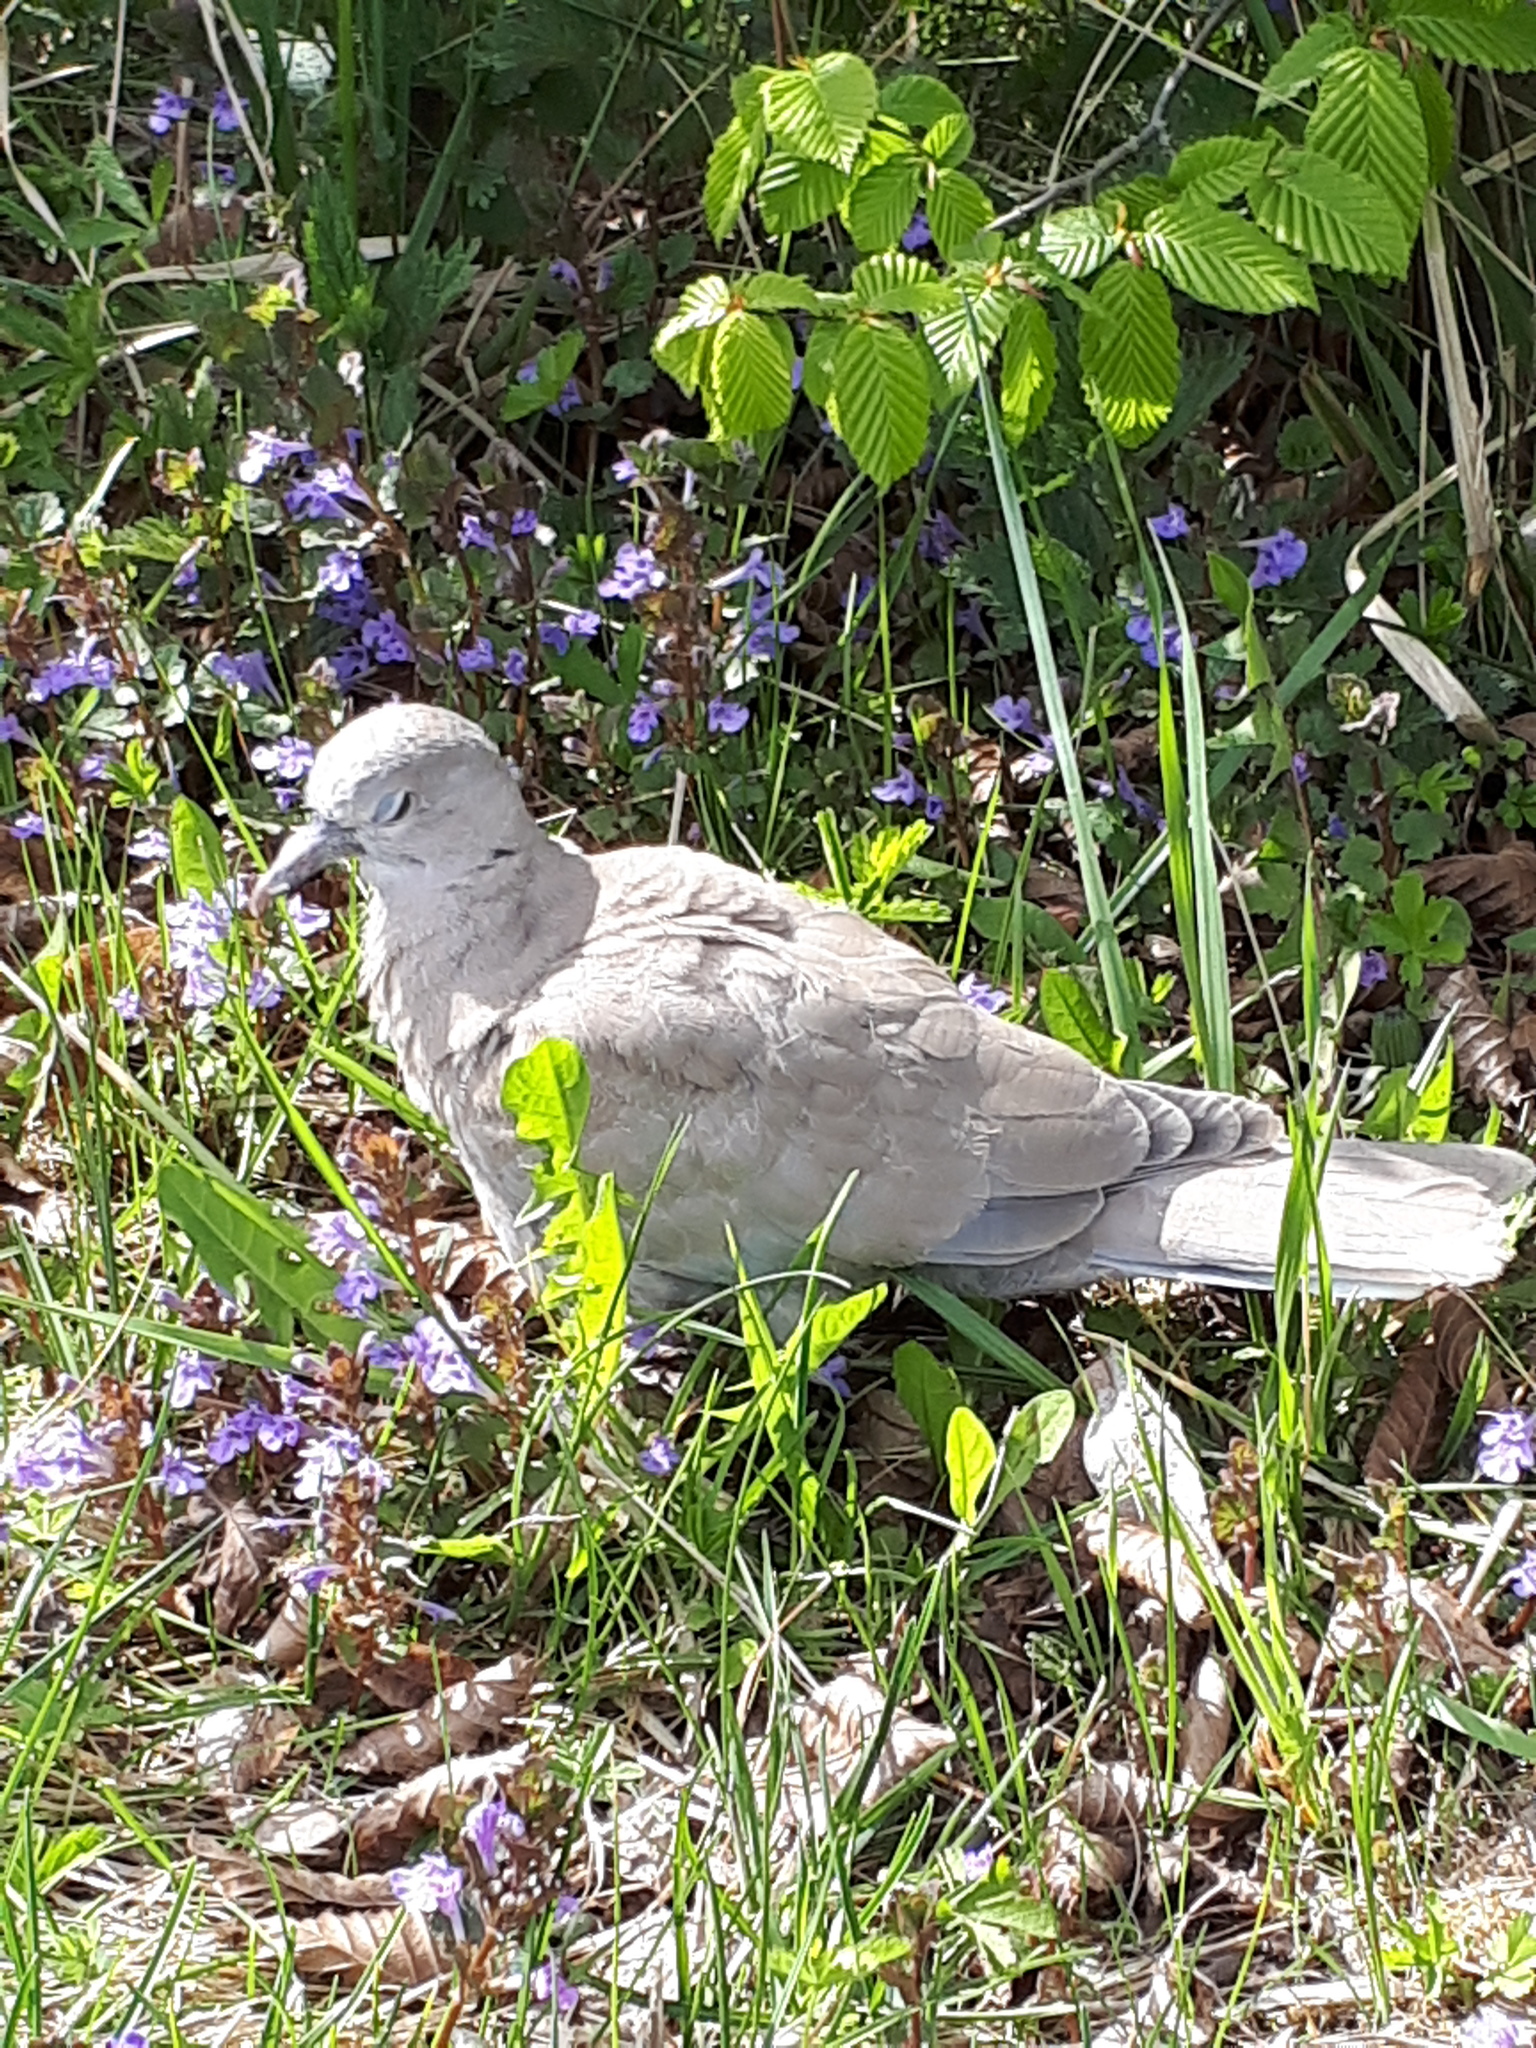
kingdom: Animalia
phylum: Chordata
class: Aves
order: Columbiformes
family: Columbidae
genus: Streptopelia
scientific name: Streptopelia decaocto
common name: Eurasian collared dove
